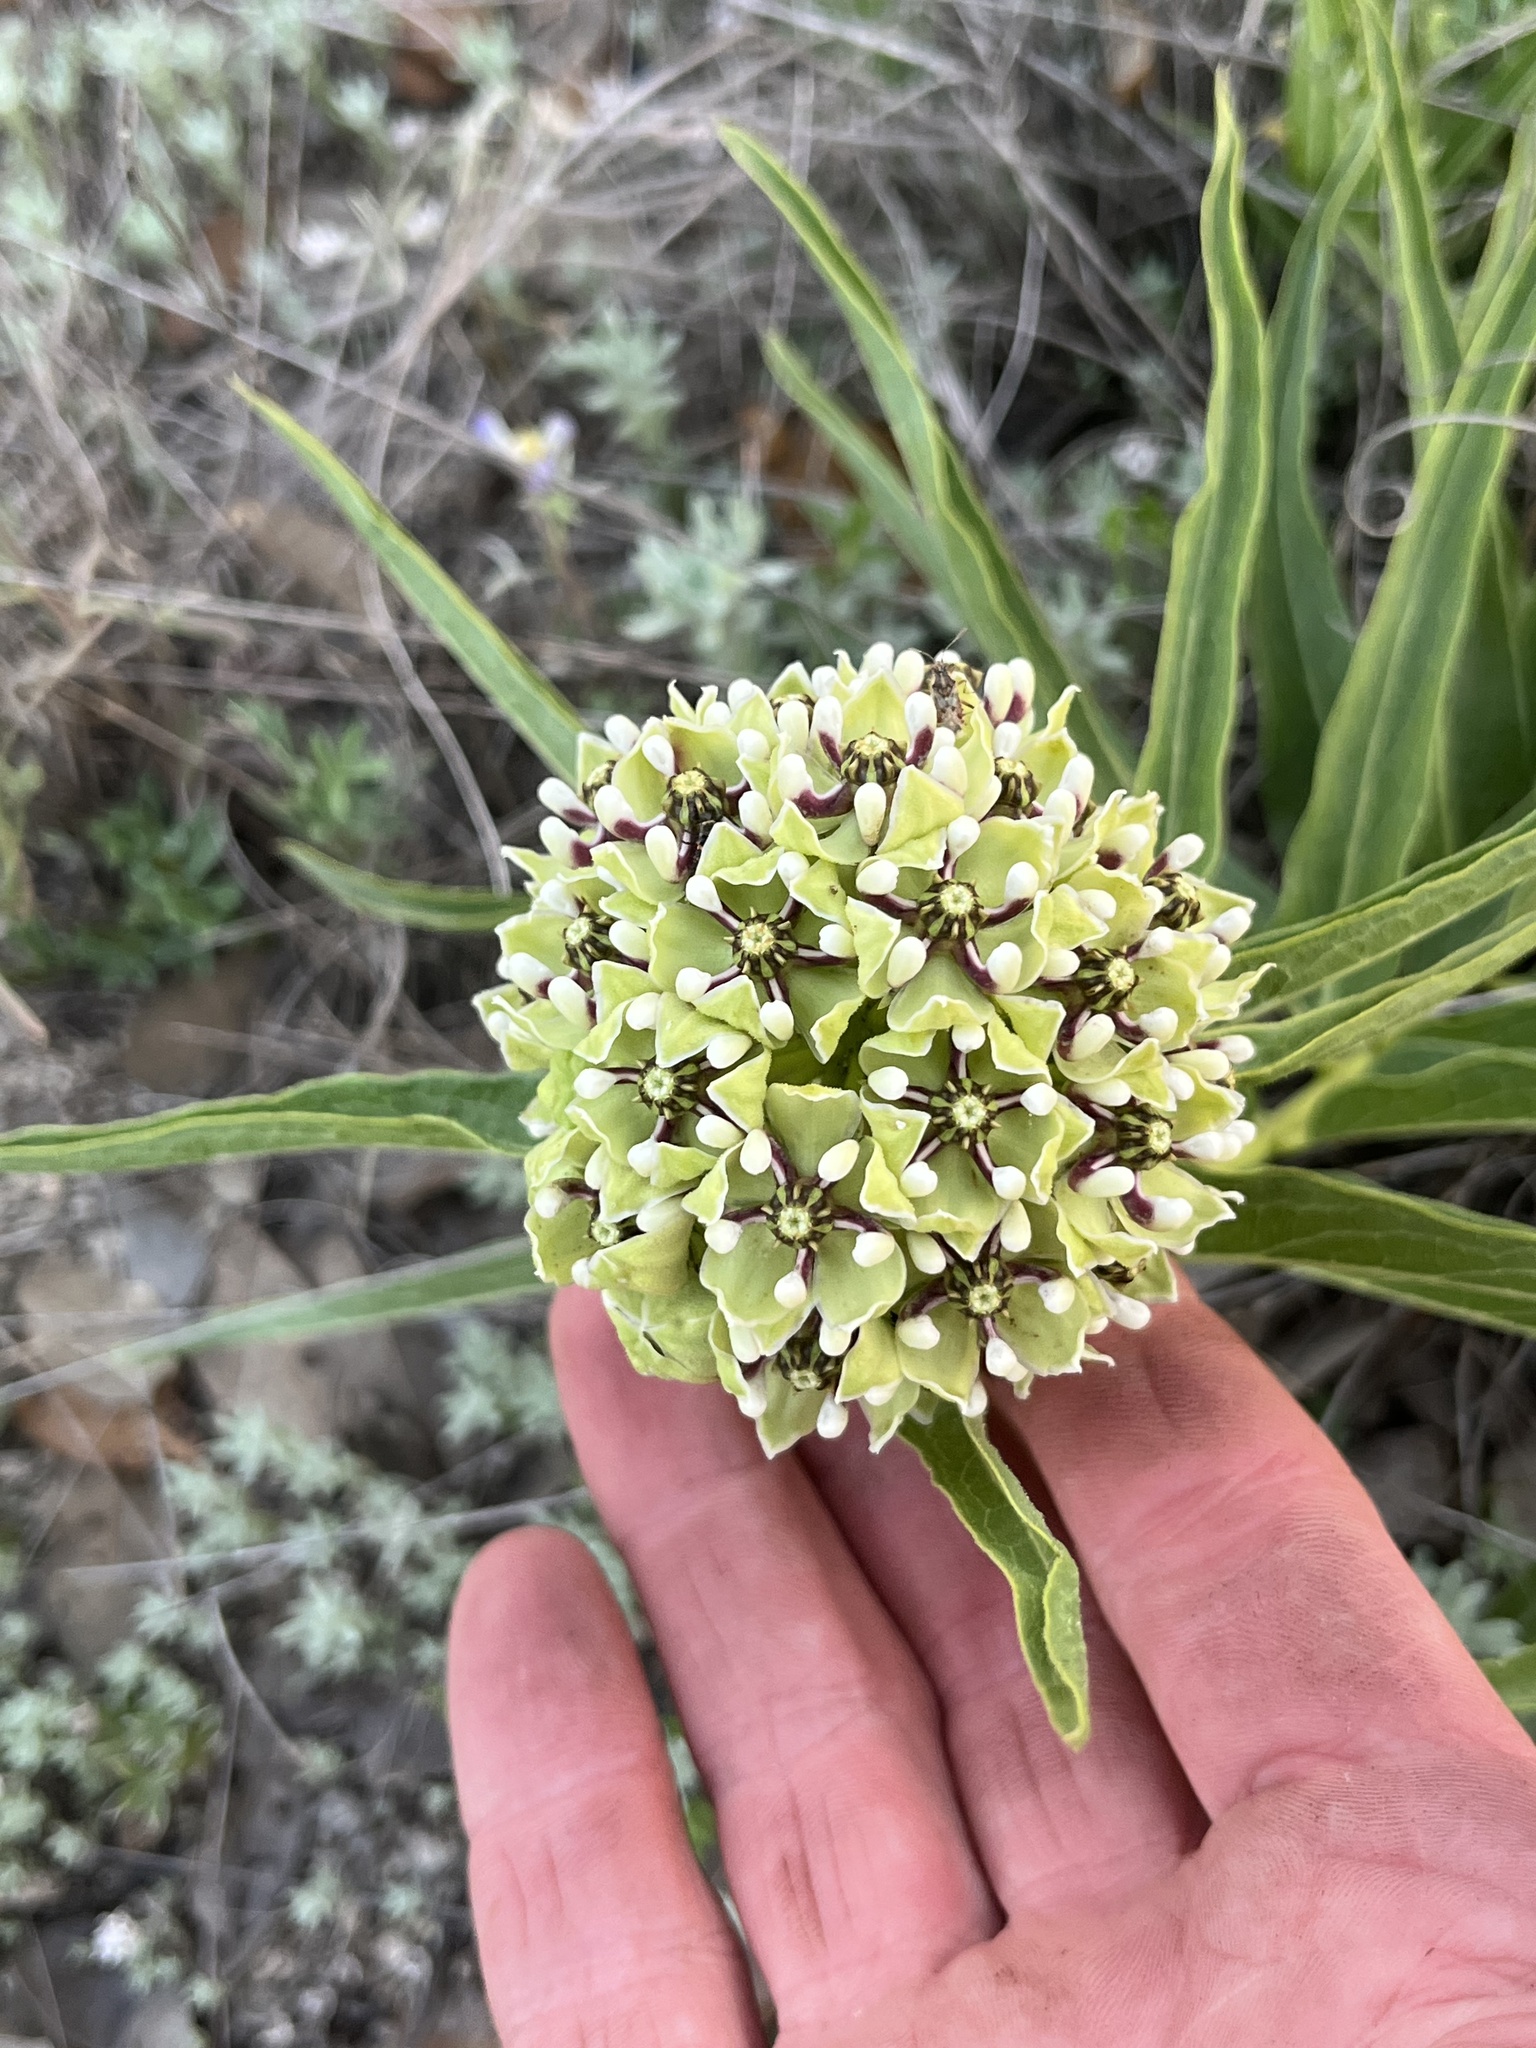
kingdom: Plantae
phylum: Tracheophyta
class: Magnoliopsida
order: Gentianales
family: Apocynaceae
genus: Asclepias
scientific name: Asclepias asperula
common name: Antelope horns
